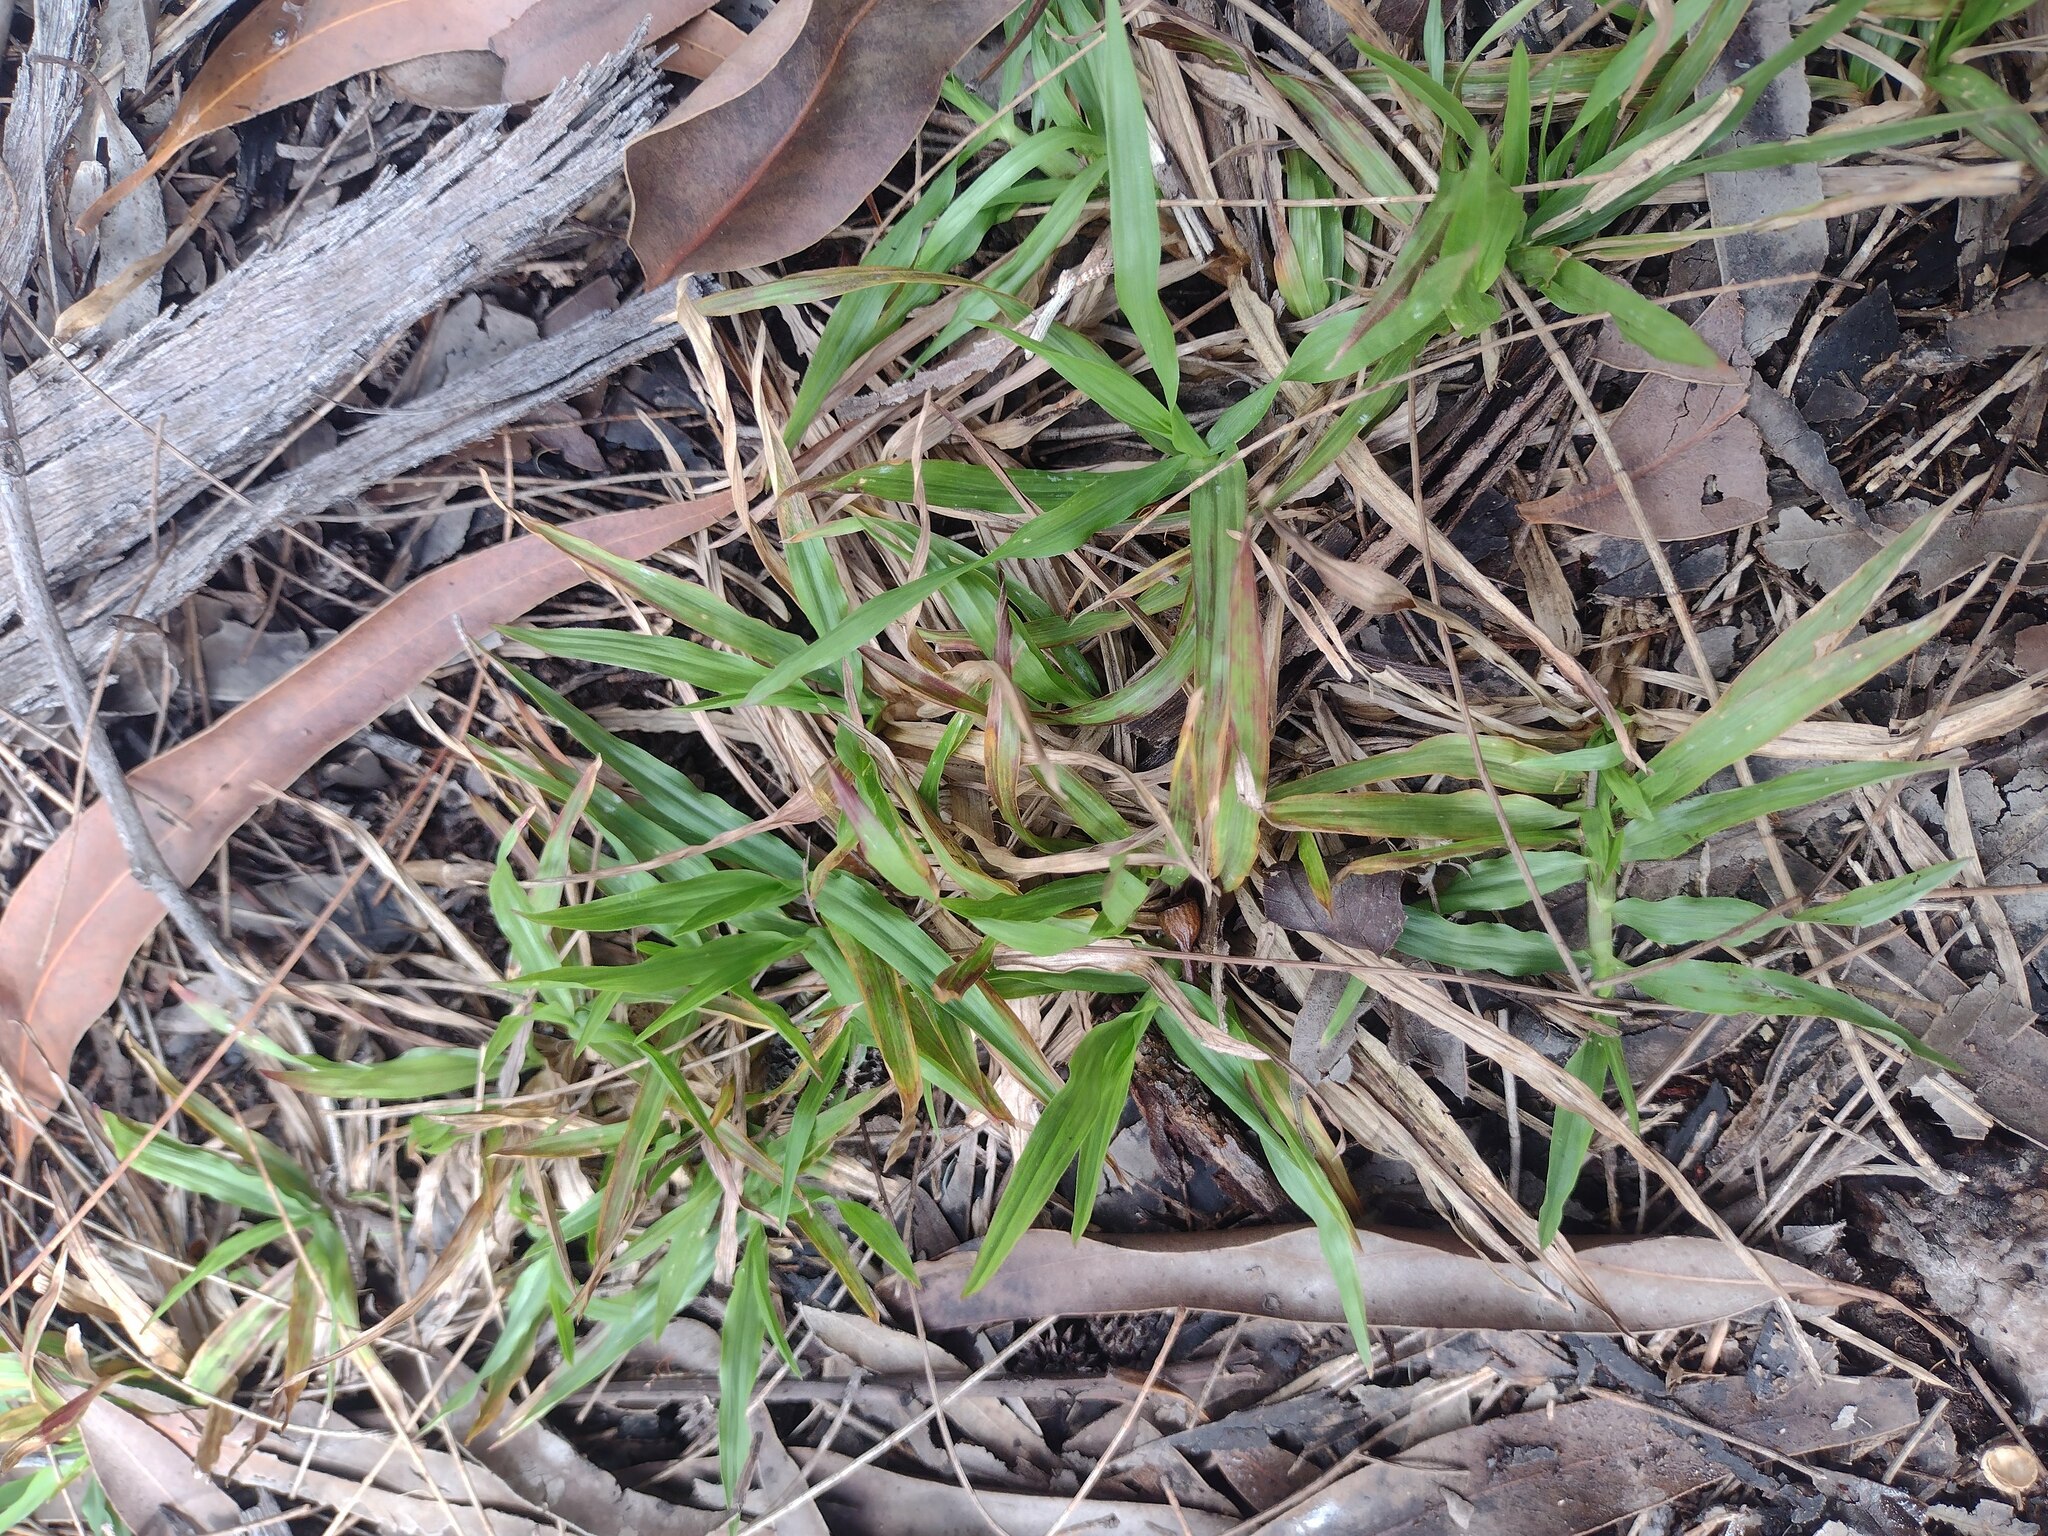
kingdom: Plantae
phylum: Tracheophyta
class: Liliopsida
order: Poales
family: Poaceae
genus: Chrysopogon
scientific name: Chrysopogon aciculatus
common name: Pilipiliula
